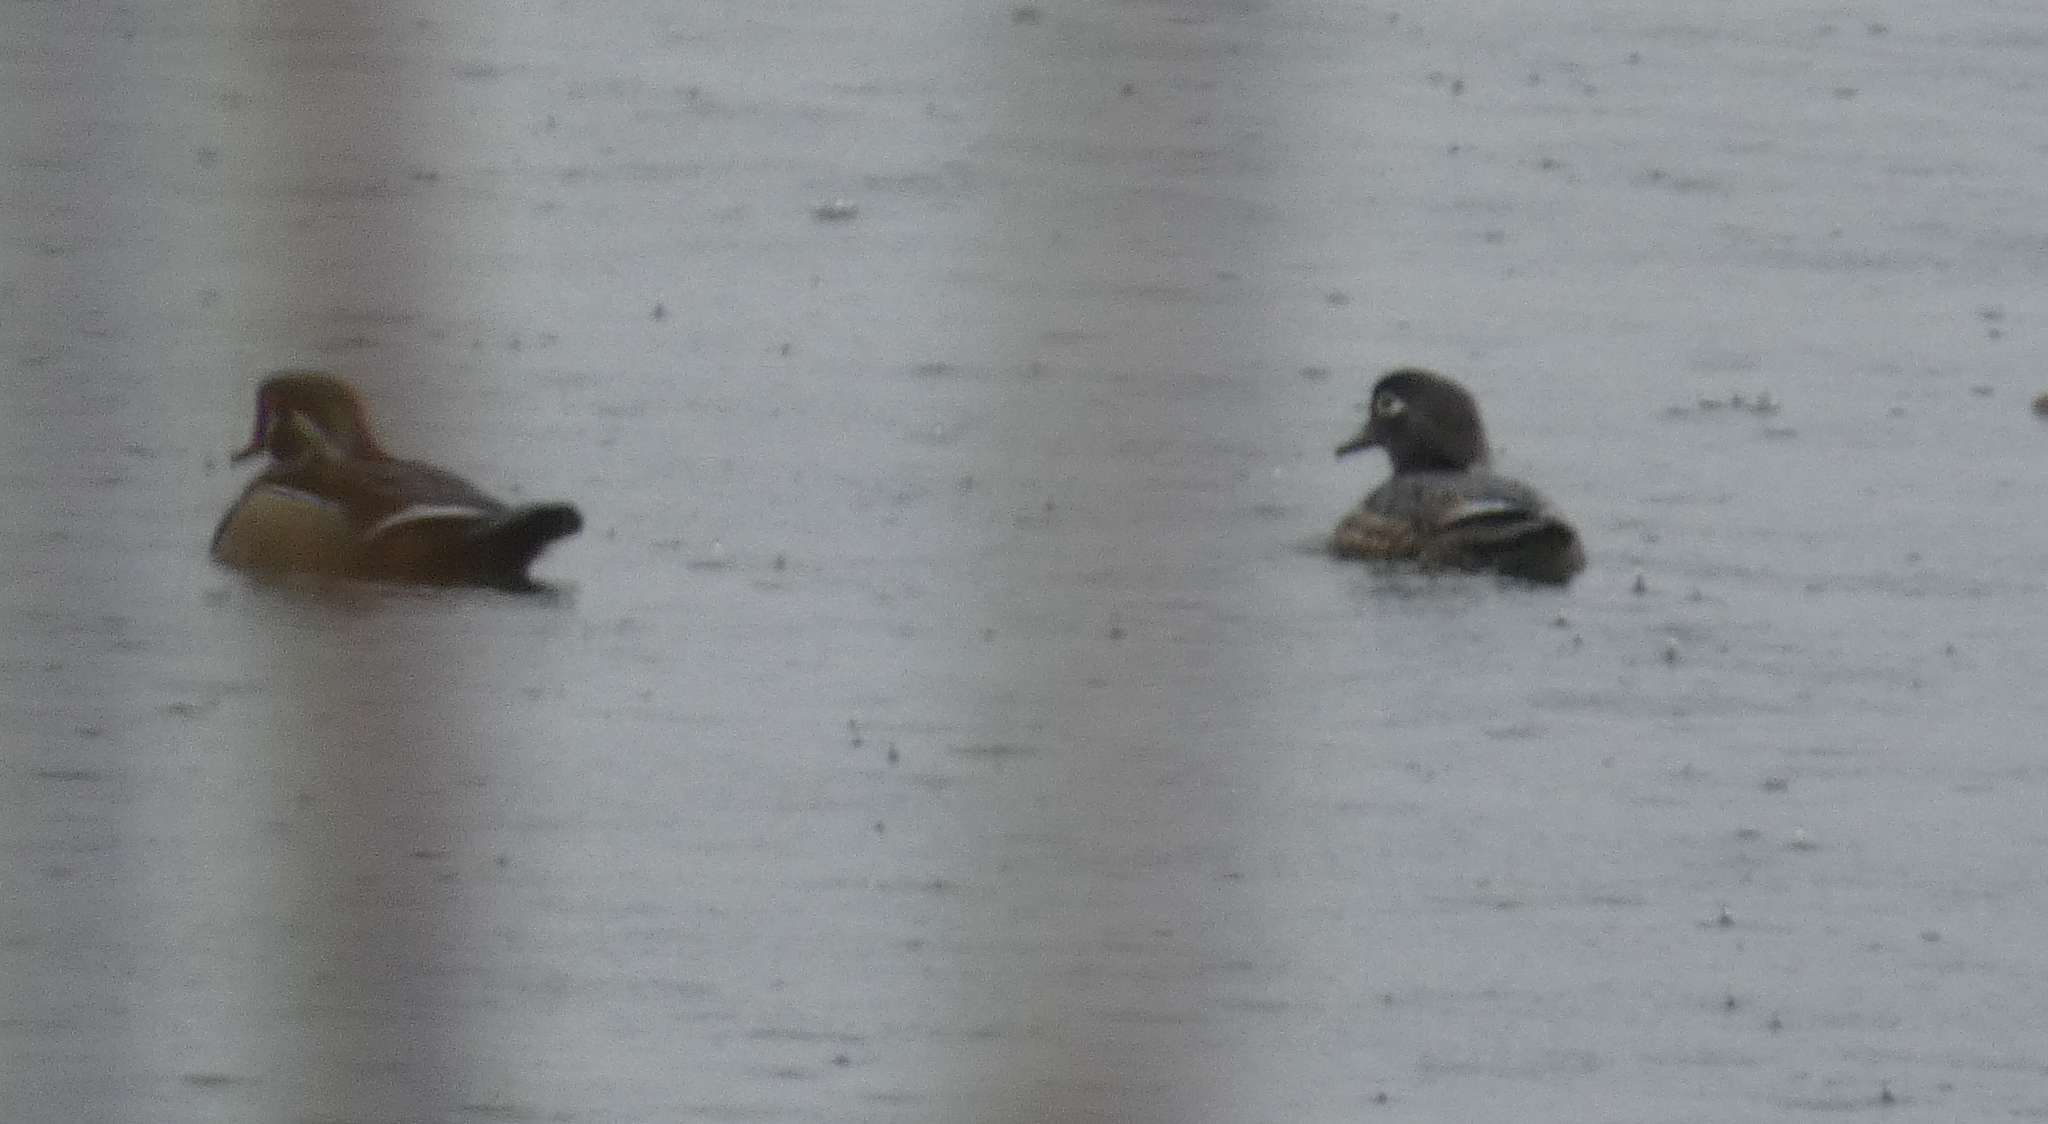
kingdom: Animalia
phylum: Chordata
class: Aves
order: Anseriformes
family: Anatidae
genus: Aix
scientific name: Aix sponsa
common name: Wood duck
